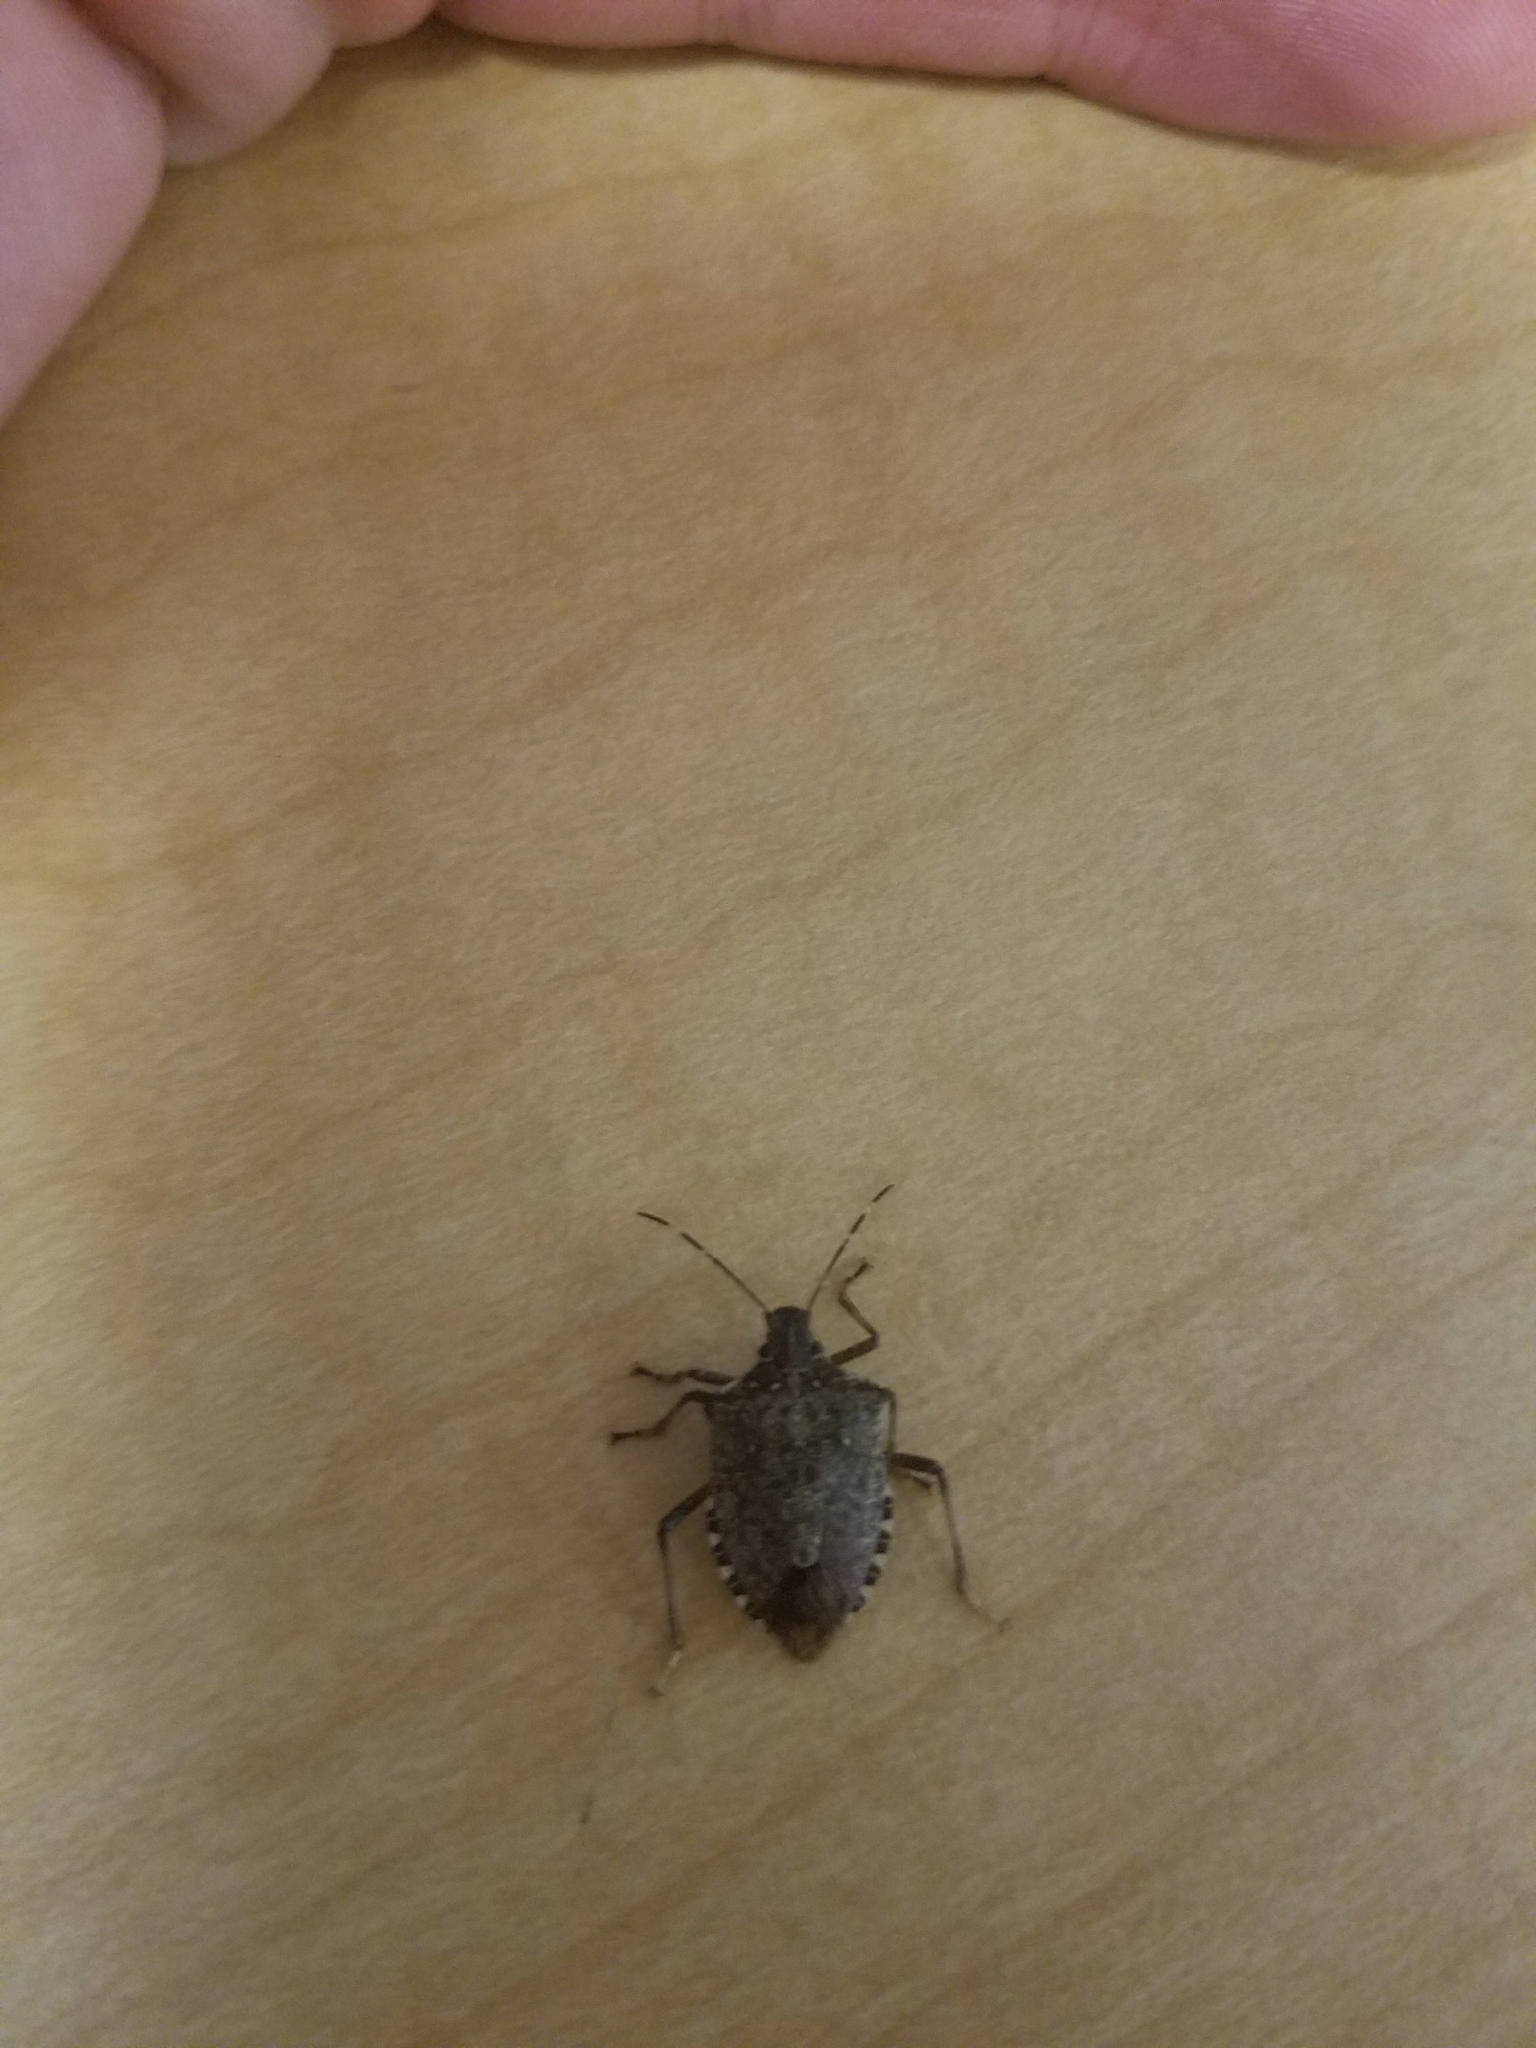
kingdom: Animalia
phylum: Arthropoda
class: Insecta
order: Hemiptera
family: Pentatomidae
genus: Halyomorpha
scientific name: Halyomorpha halys
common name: Brown marmorated stink bug
